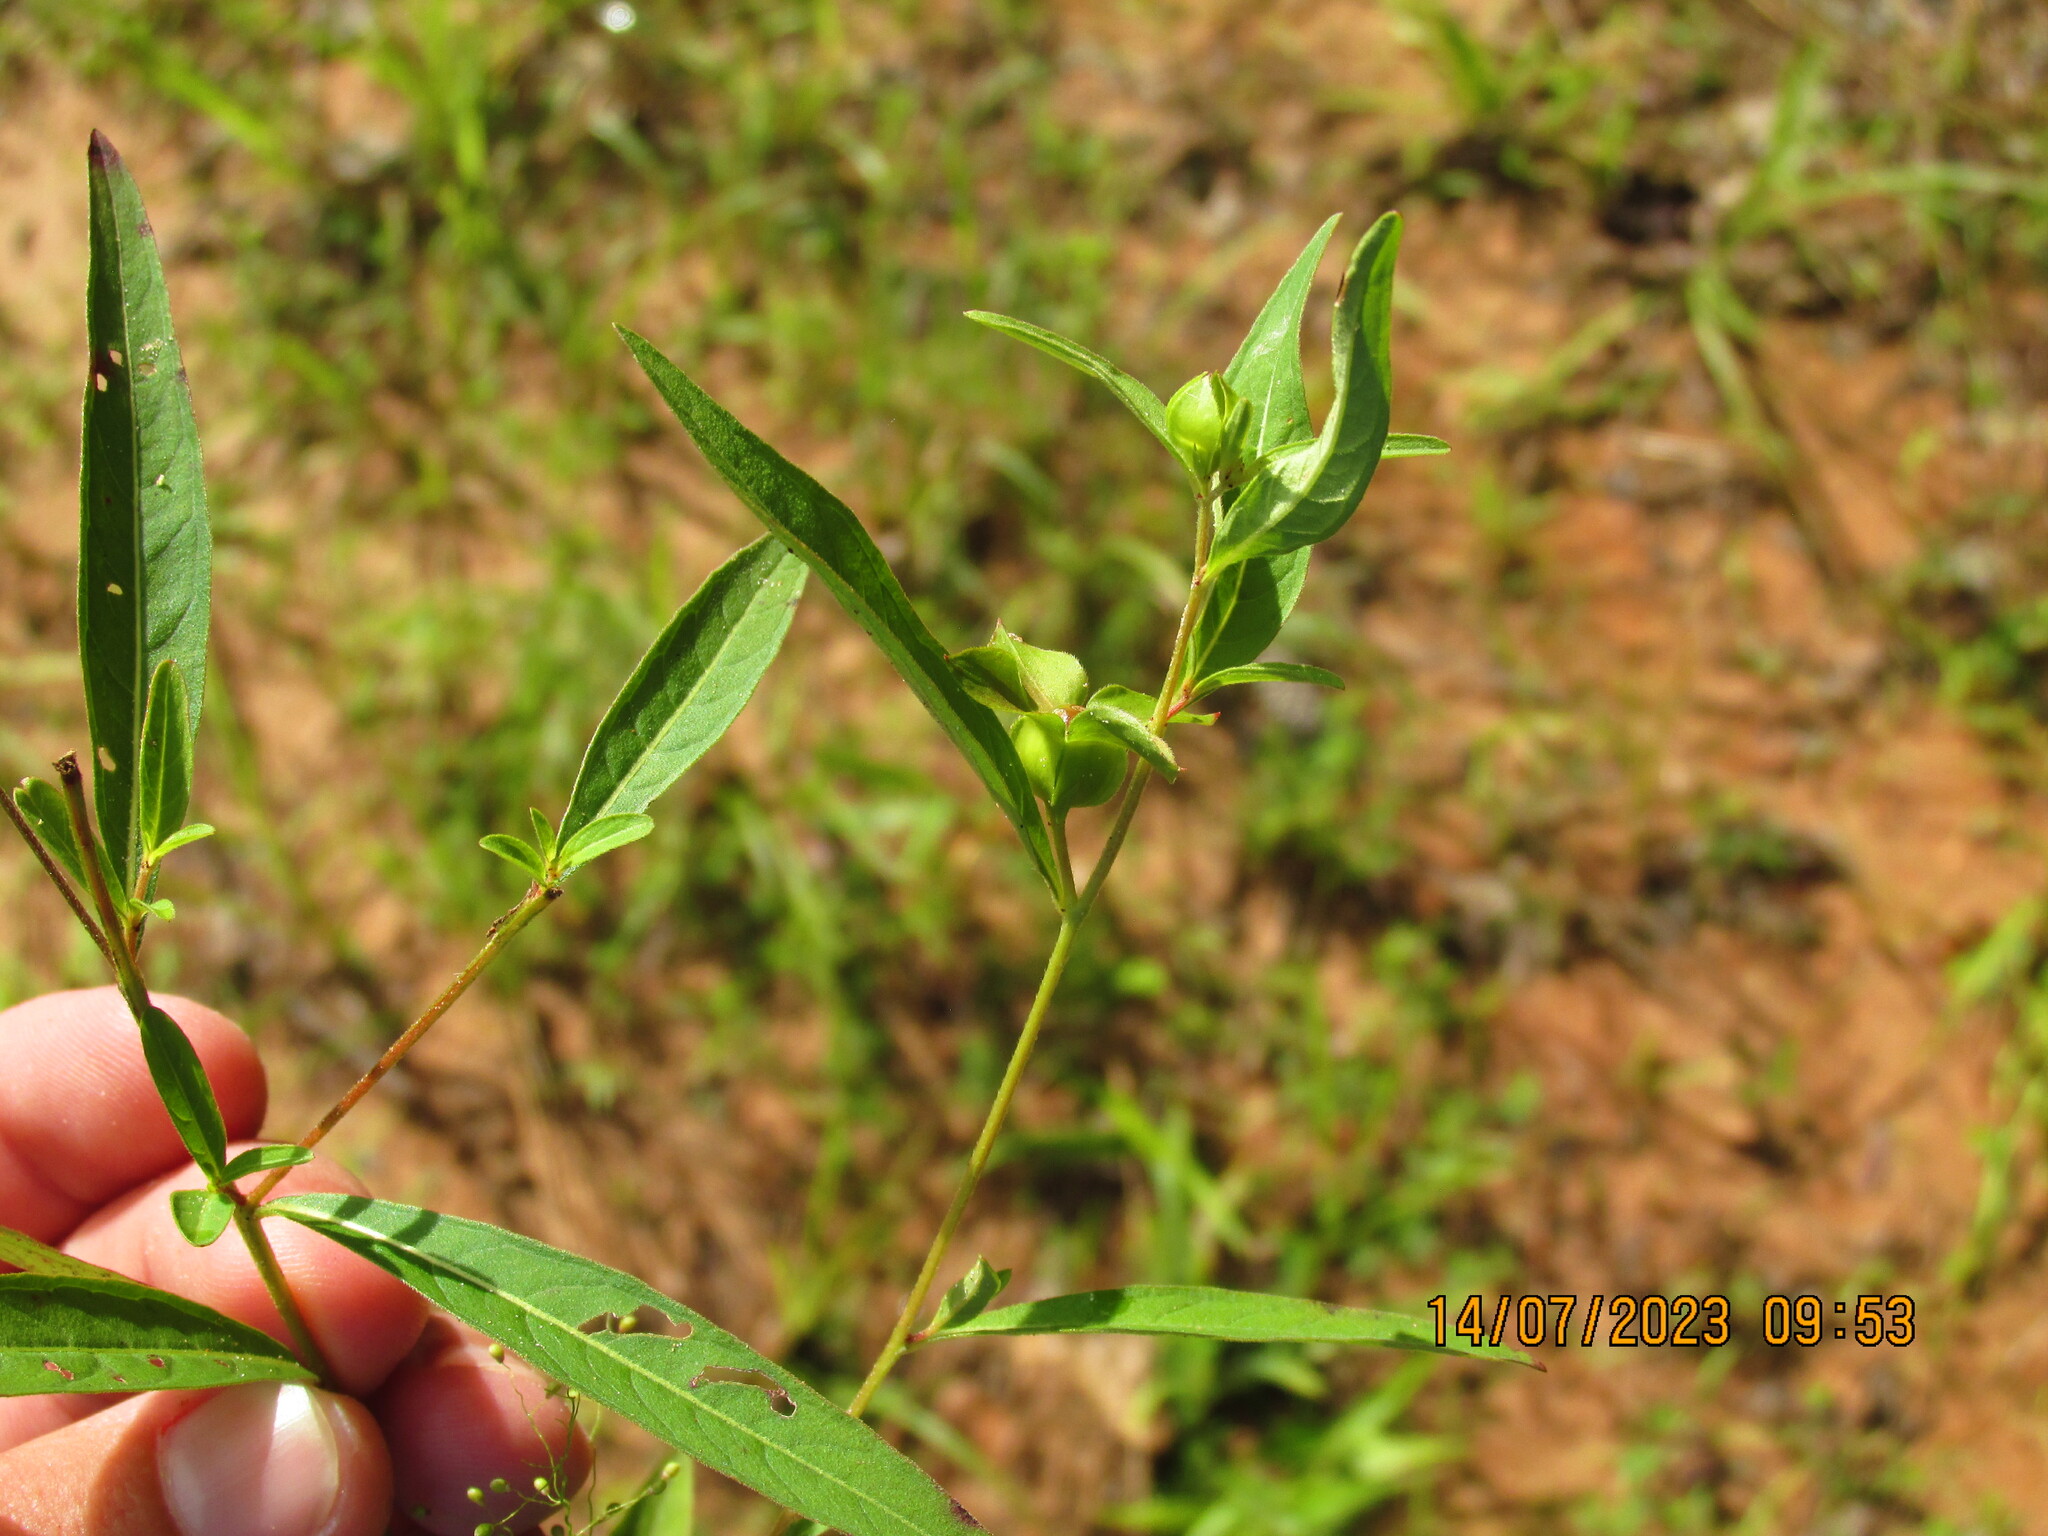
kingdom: Plantae
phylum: Tracheophyta
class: Magnoliopsida
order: Myrtales
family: Onagraceae
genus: Ludwigia
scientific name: Ludwigia alternifolia
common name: Rattlebox
